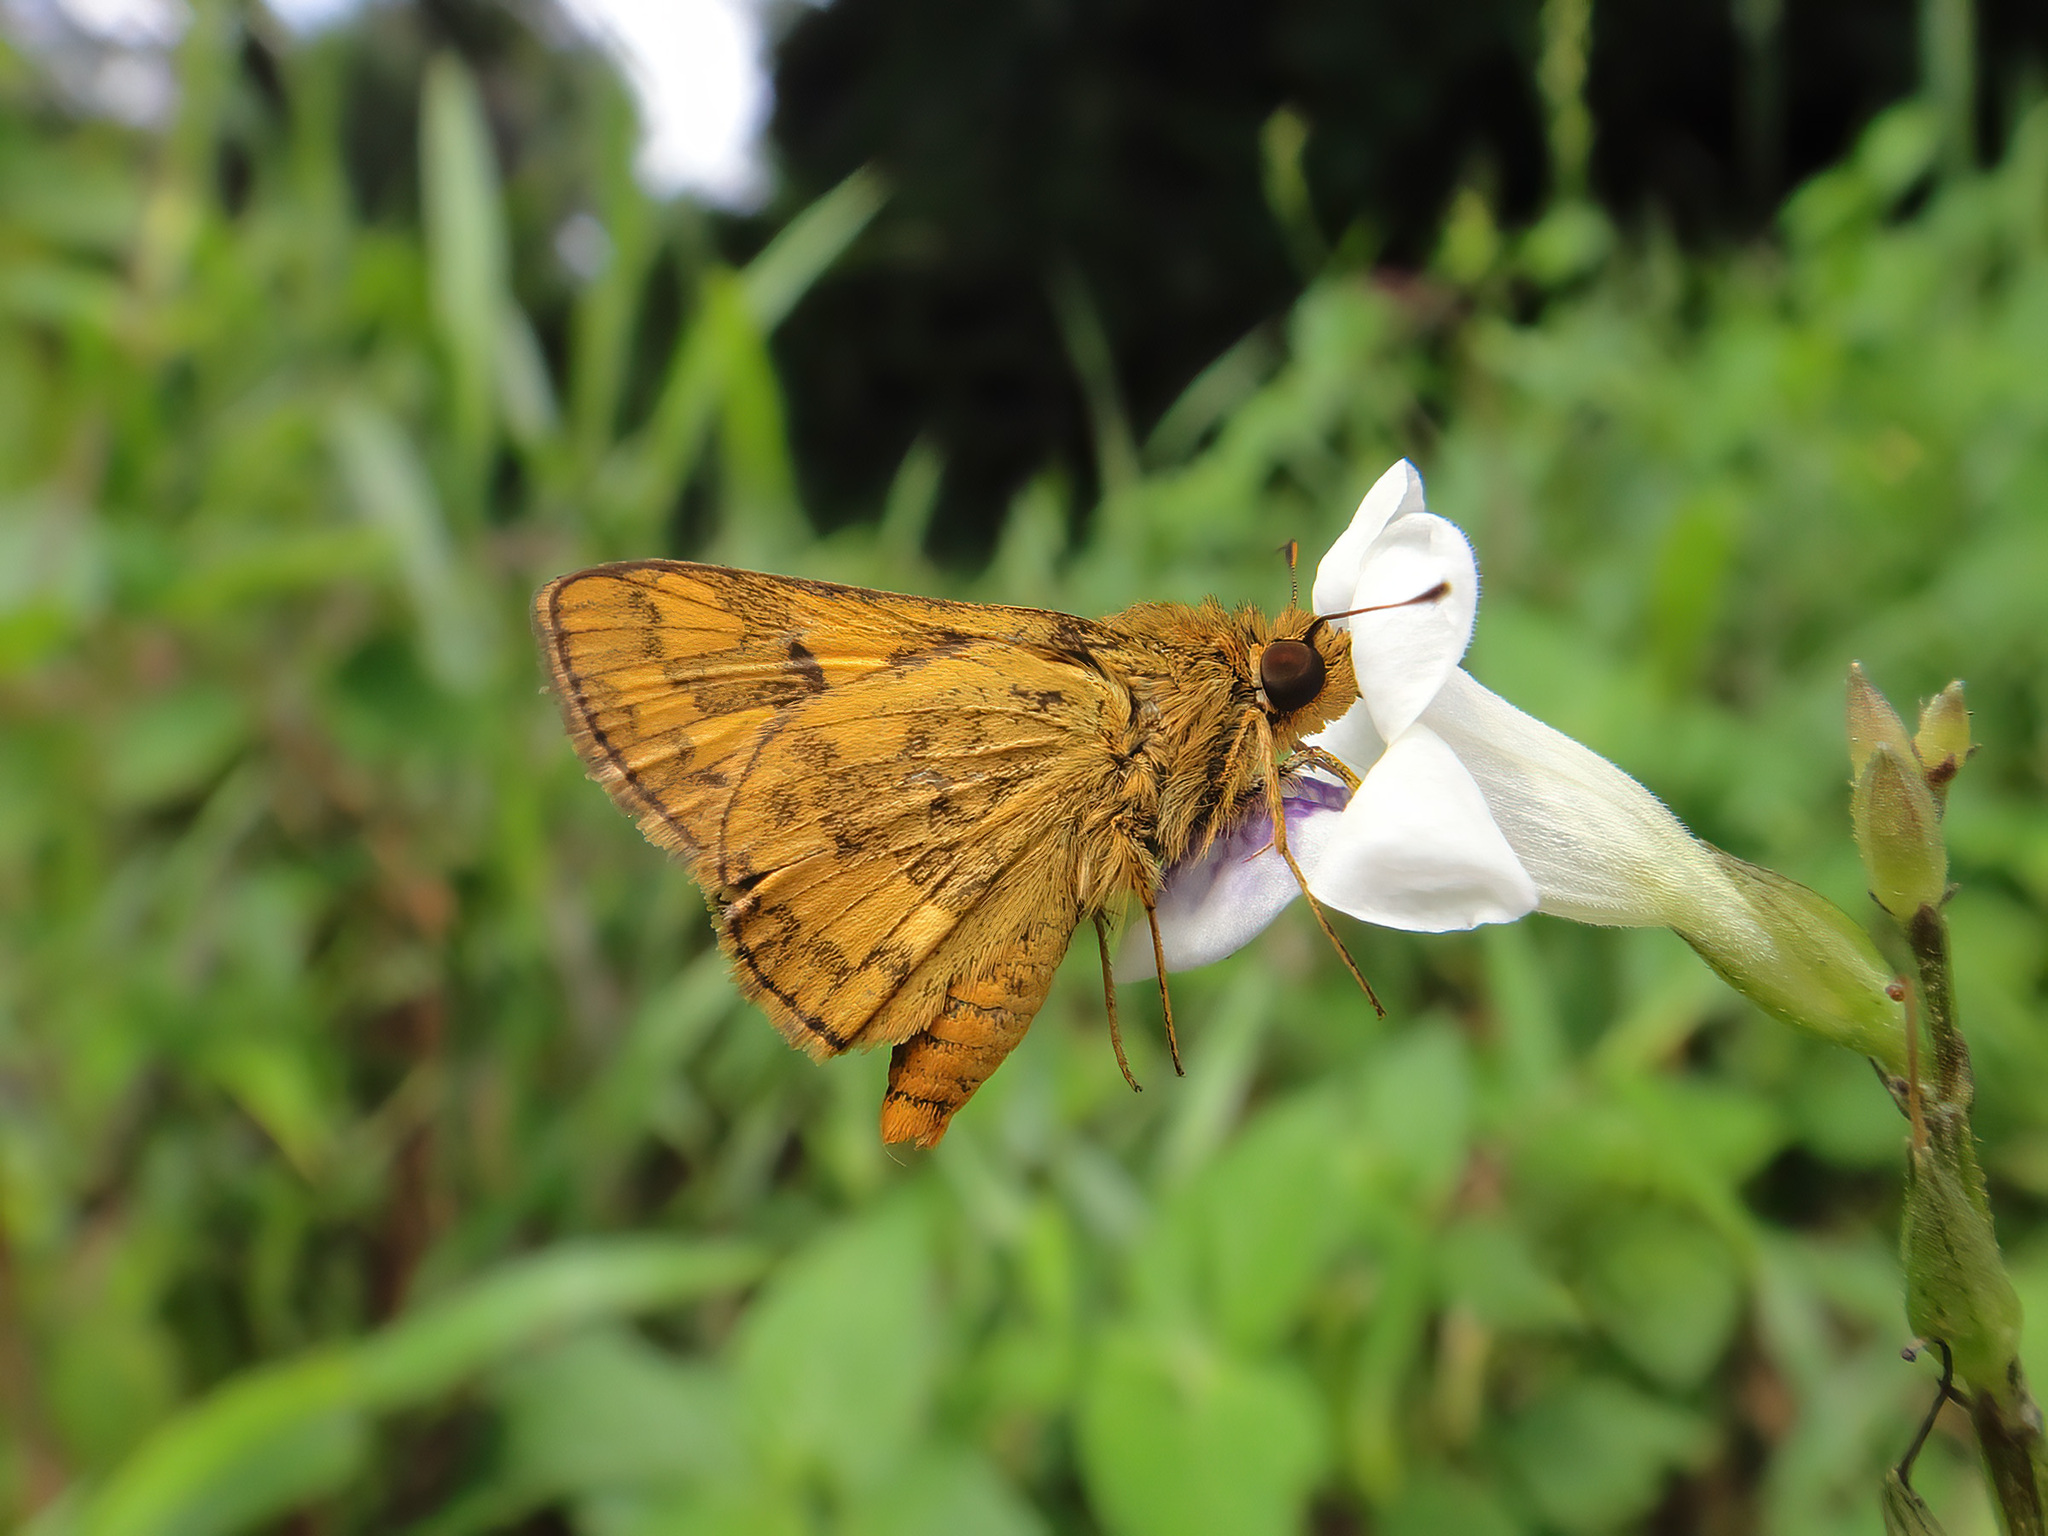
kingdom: Animalia
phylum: Arthropoda
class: Insecta
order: Lepidoptera
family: Hesperiidae
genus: Potanthus
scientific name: Potanthus omaha
